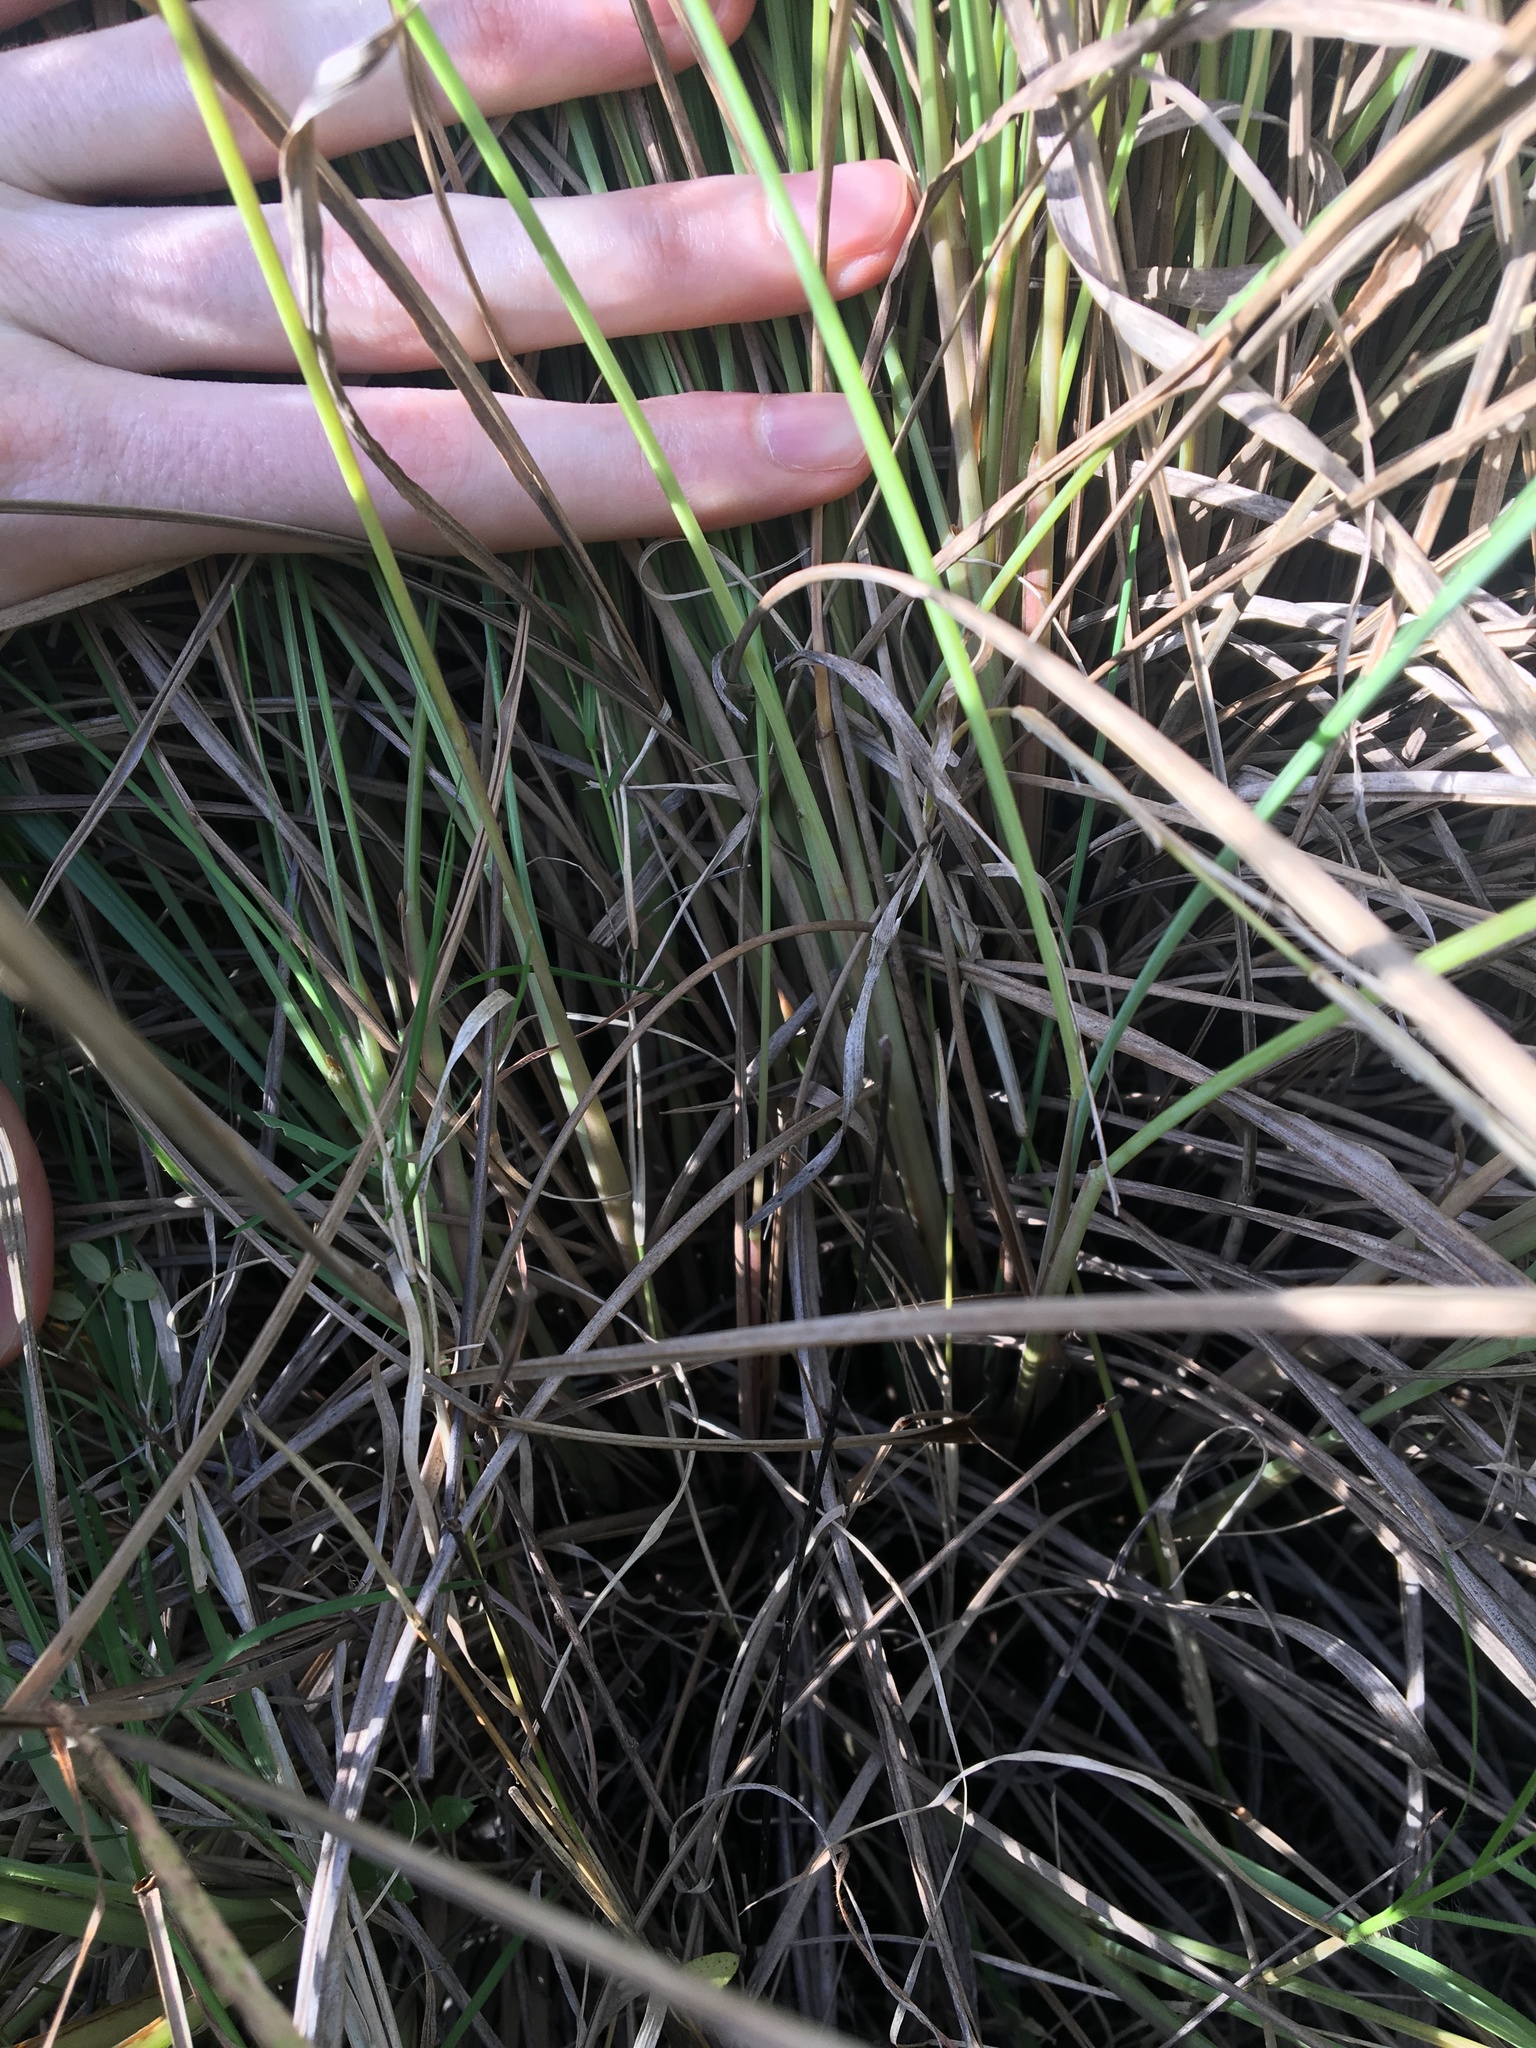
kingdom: Plantae
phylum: Tracheophyta
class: Liliopsida
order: Poales
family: Poaceae
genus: Paspalum
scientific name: Paspalum quadrifarium
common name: Tussock paspalum
